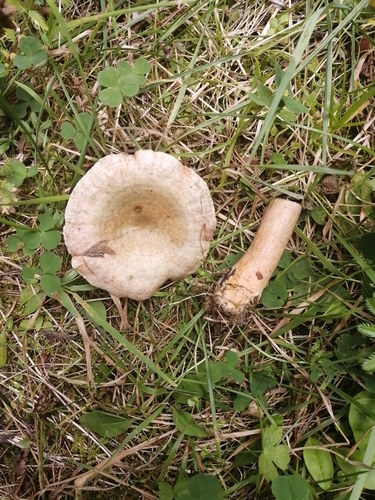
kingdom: Fungi
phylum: Basidiomycota
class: Agaricomycetes
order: Russulales
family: Russulaceae
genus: Lactarius
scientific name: Lactarius flexuosus
